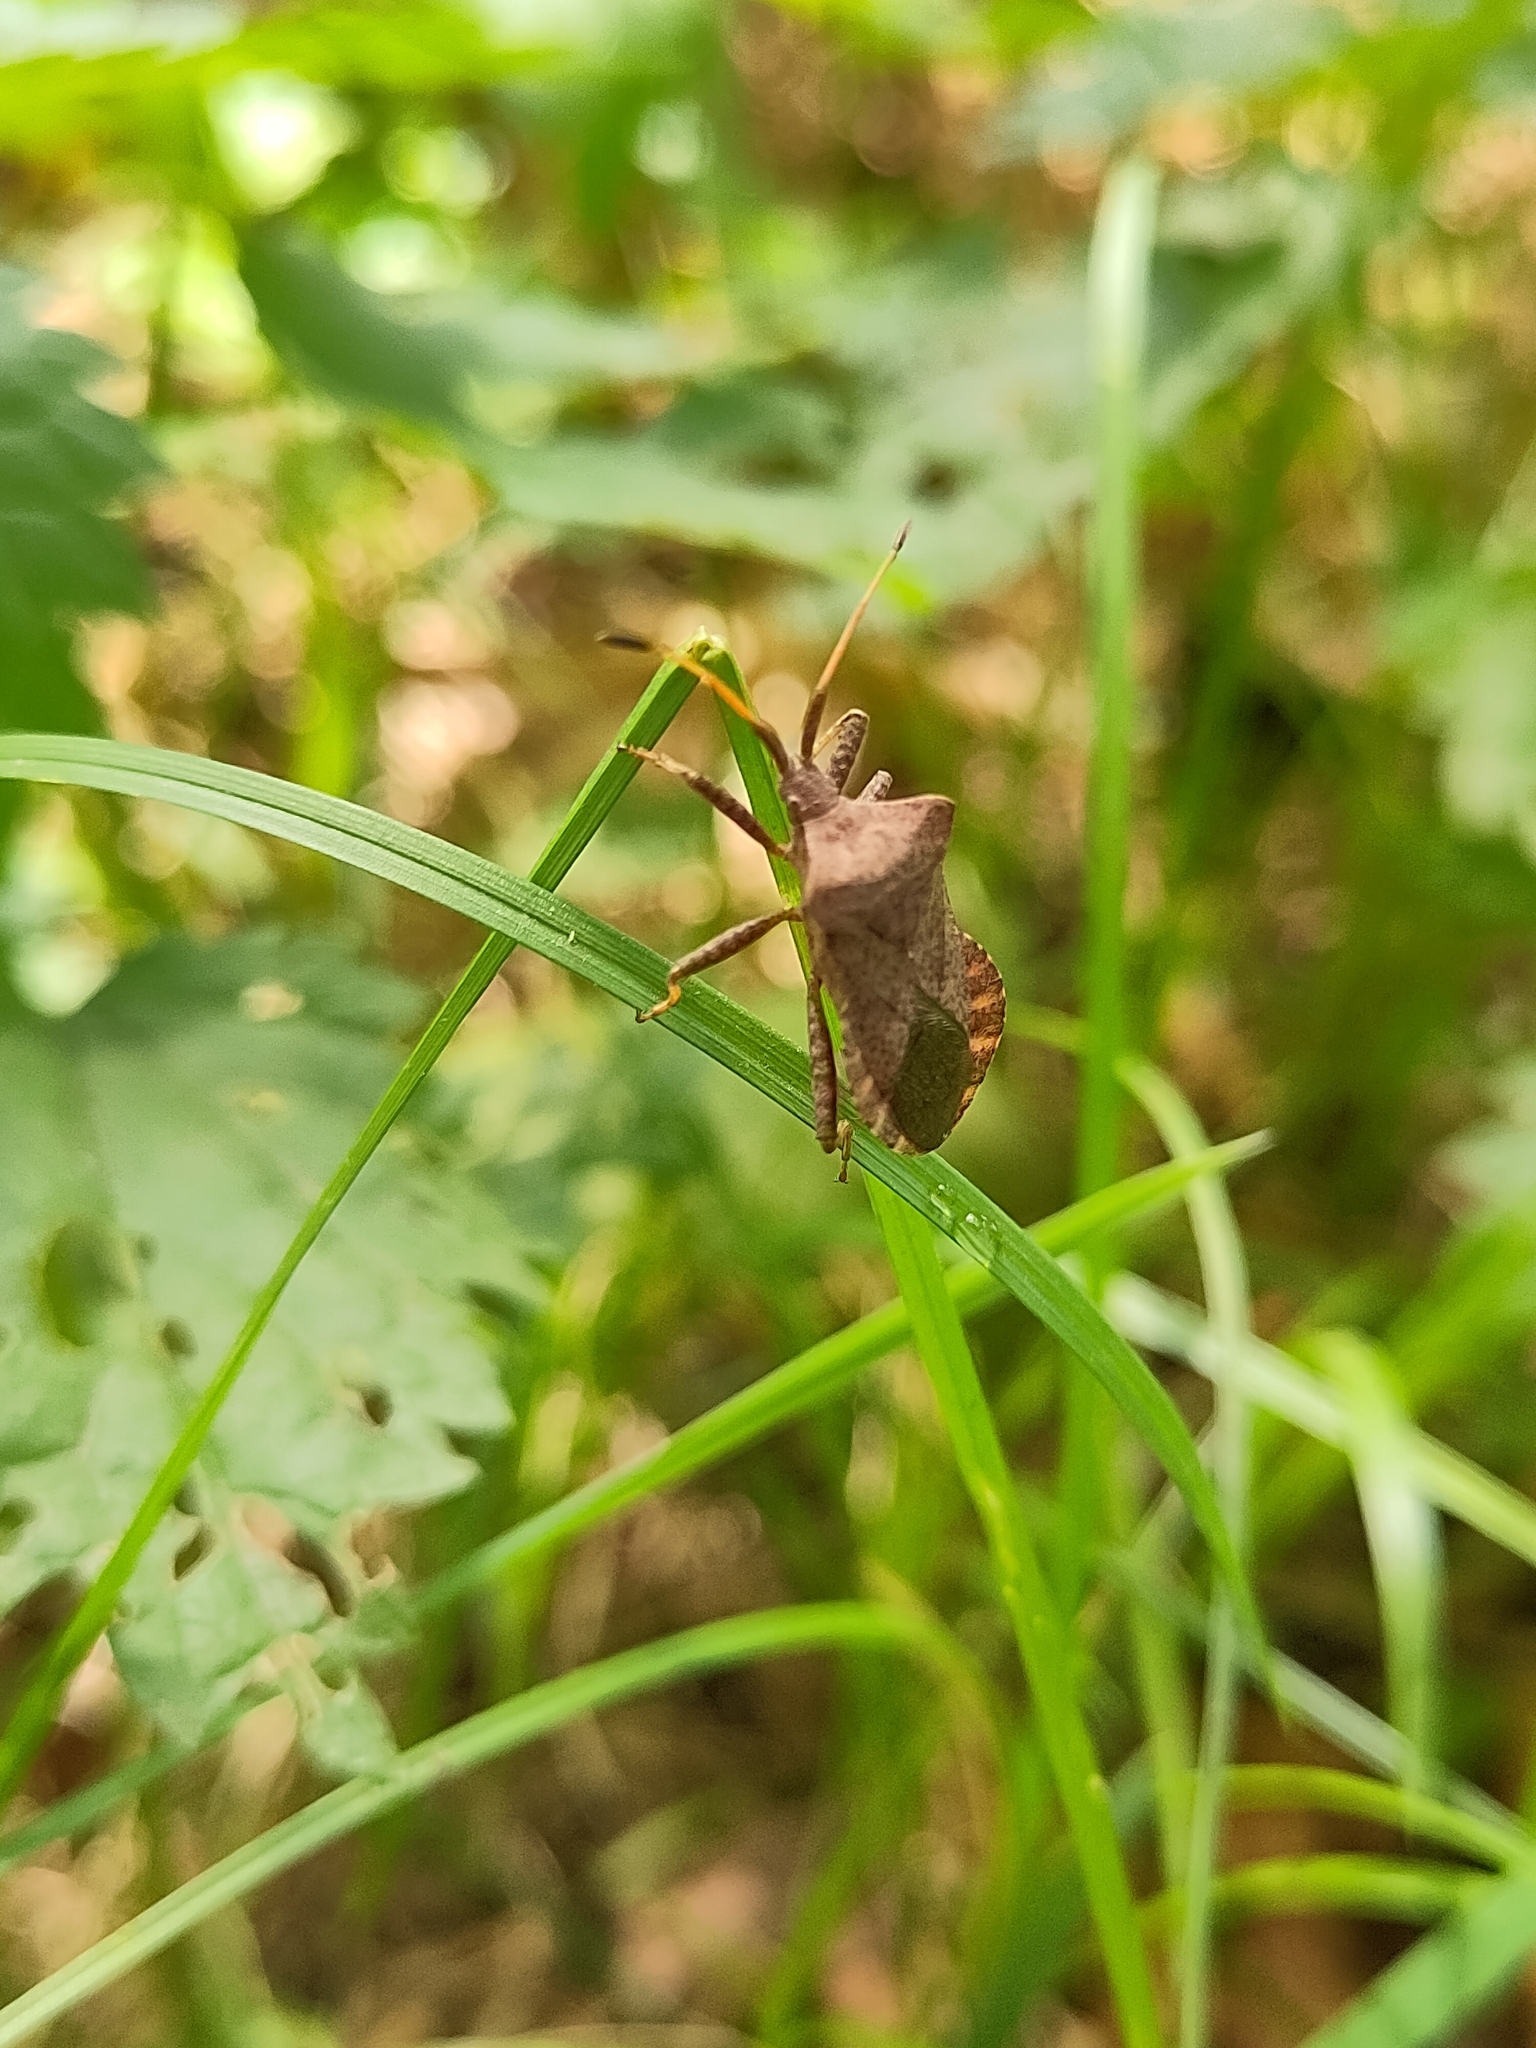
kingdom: Animalia
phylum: Arthropoda
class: Insecta
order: Hemiptera
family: Coreidae
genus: Coreus
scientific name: Coreus marginatus
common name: Dock bug
